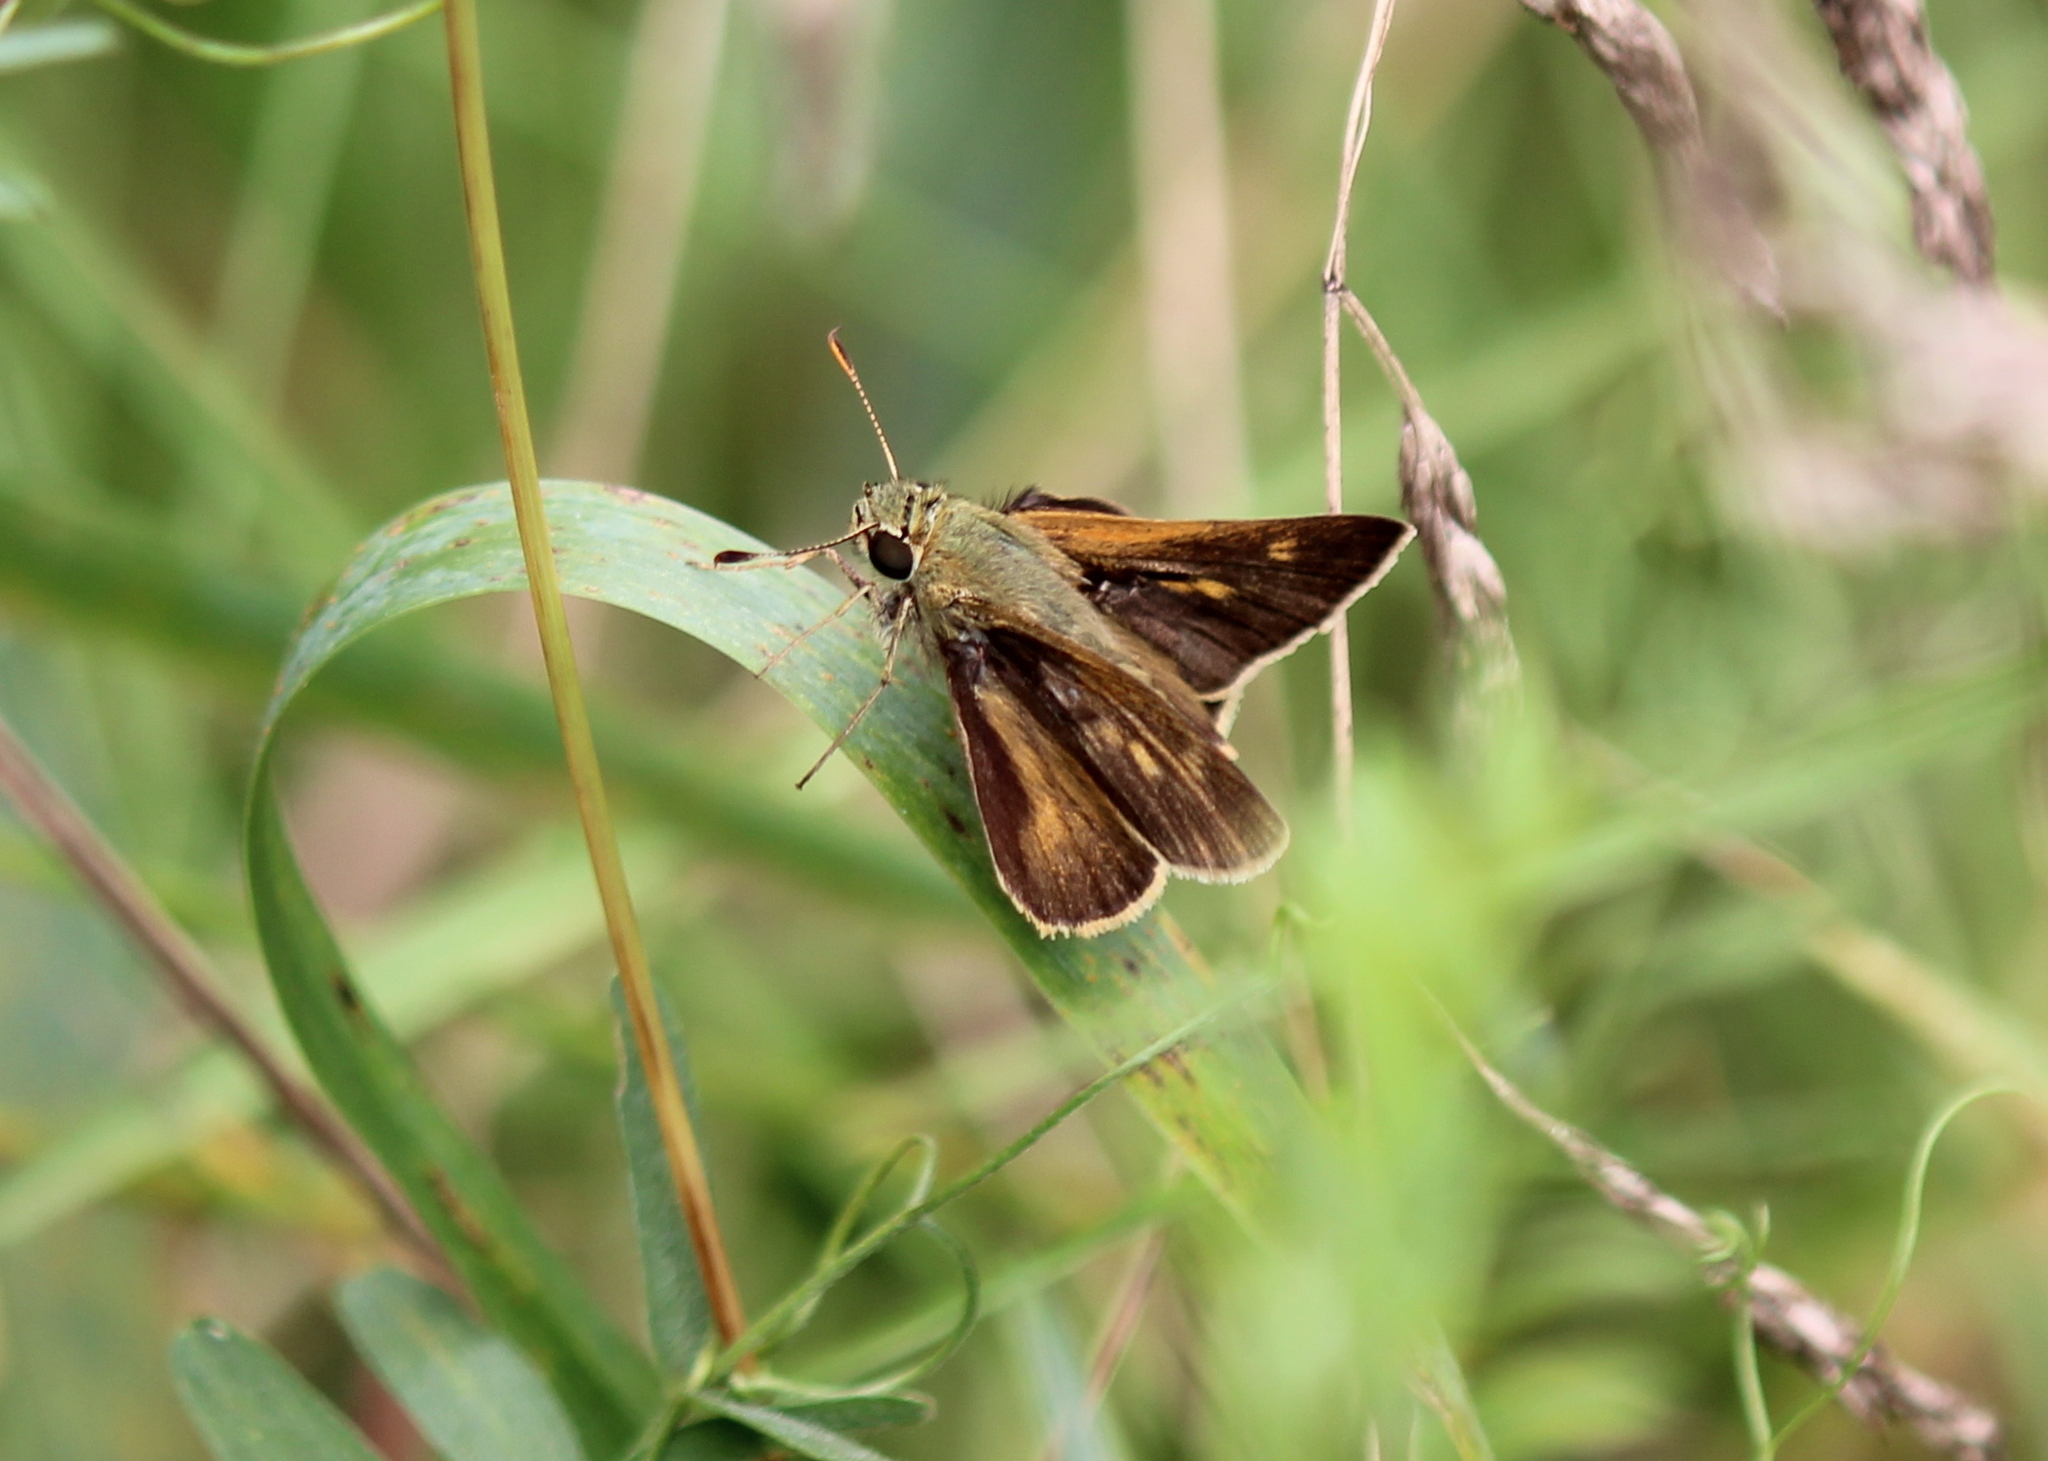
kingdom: Animalia
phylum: Arthropoda
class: Insecta
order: Lepidoptera
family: Hesperiidae
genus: Polites
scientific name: Polites egeremet
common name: Northern broken-dash
